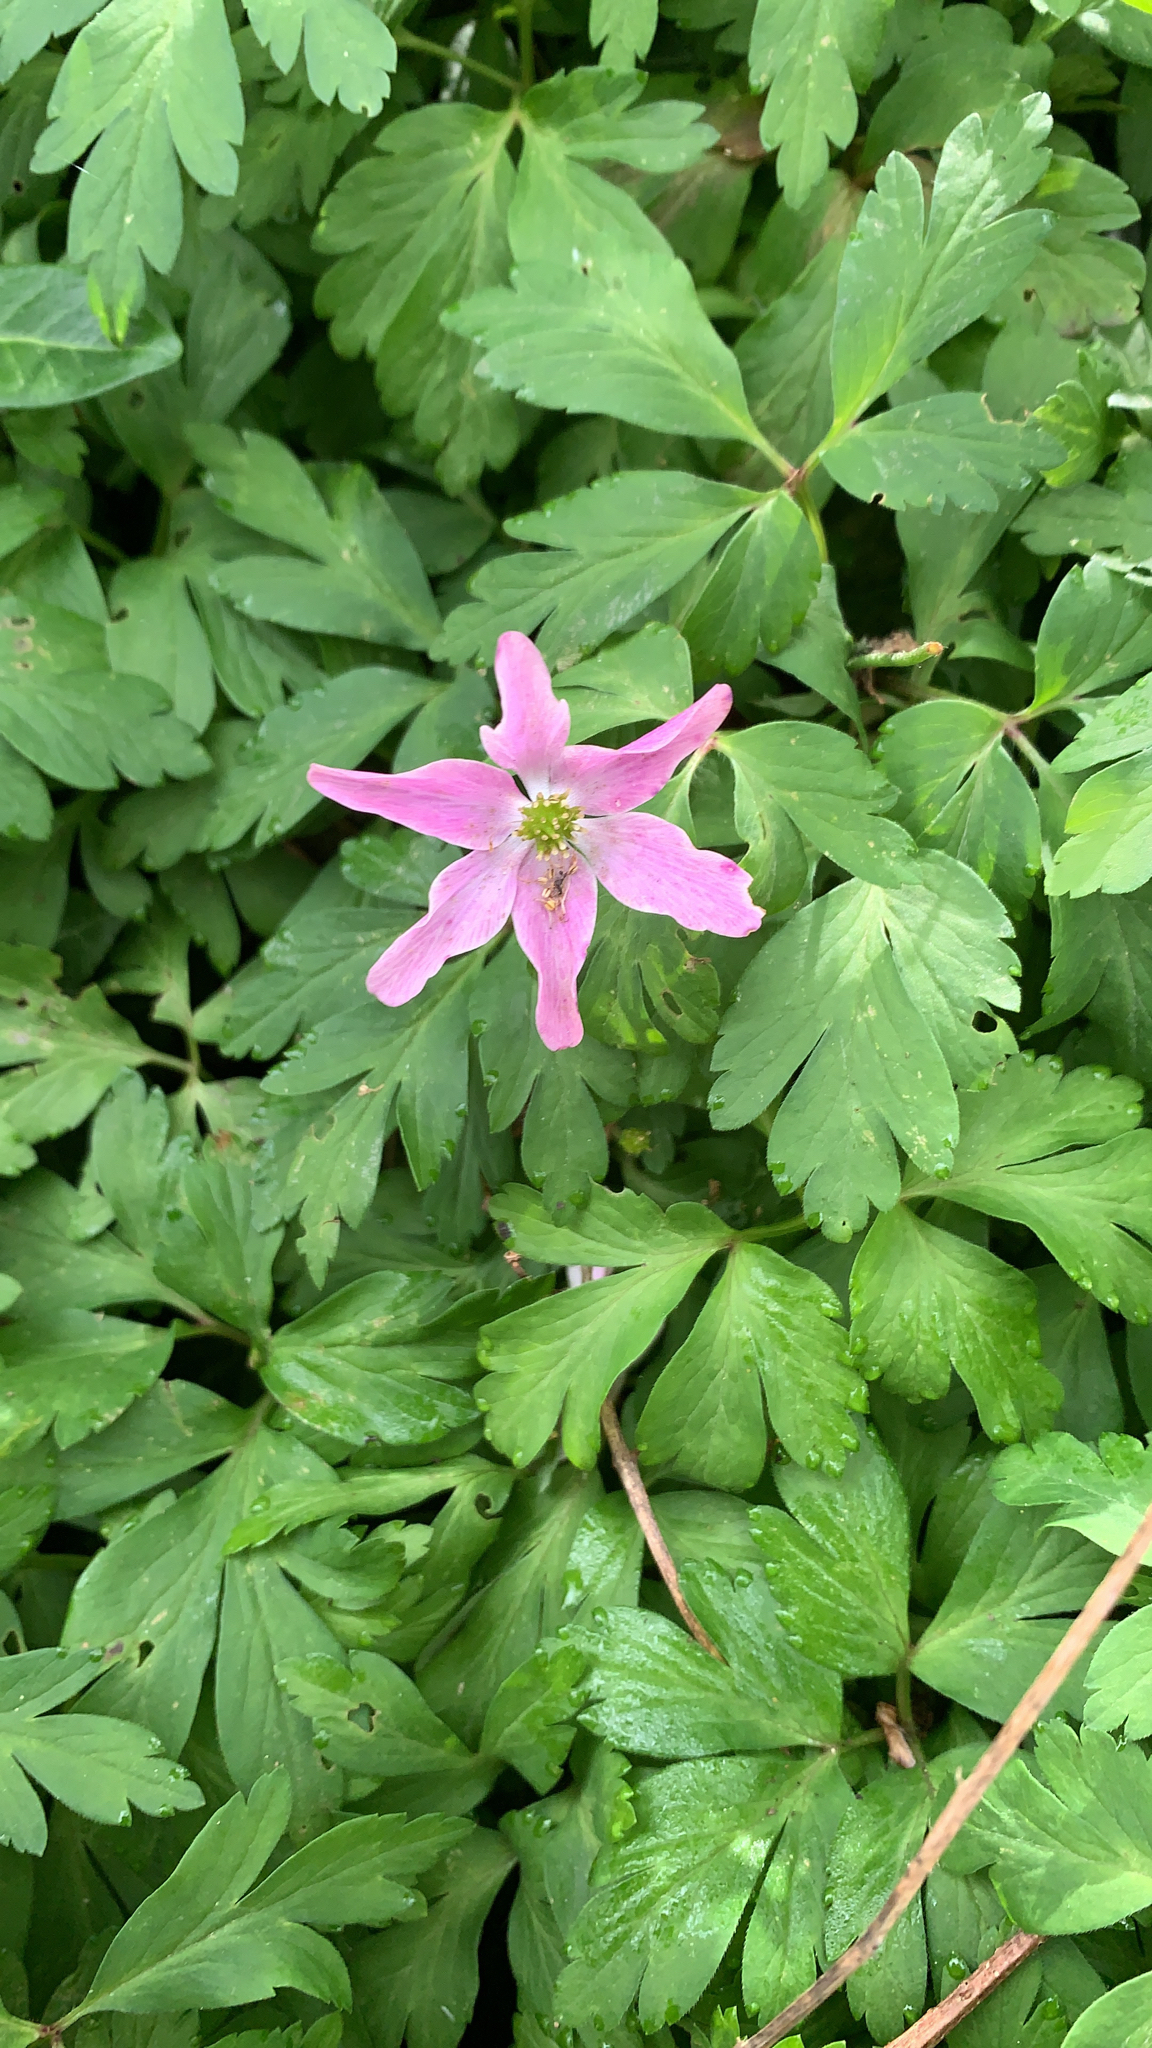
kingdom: Plantae
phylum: Tracheophyta
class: Magnoliopsida
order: Ranunculales
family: Ranunculaceae
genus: Anemone
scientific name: Anemone nemorosa
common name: Wood anemone
